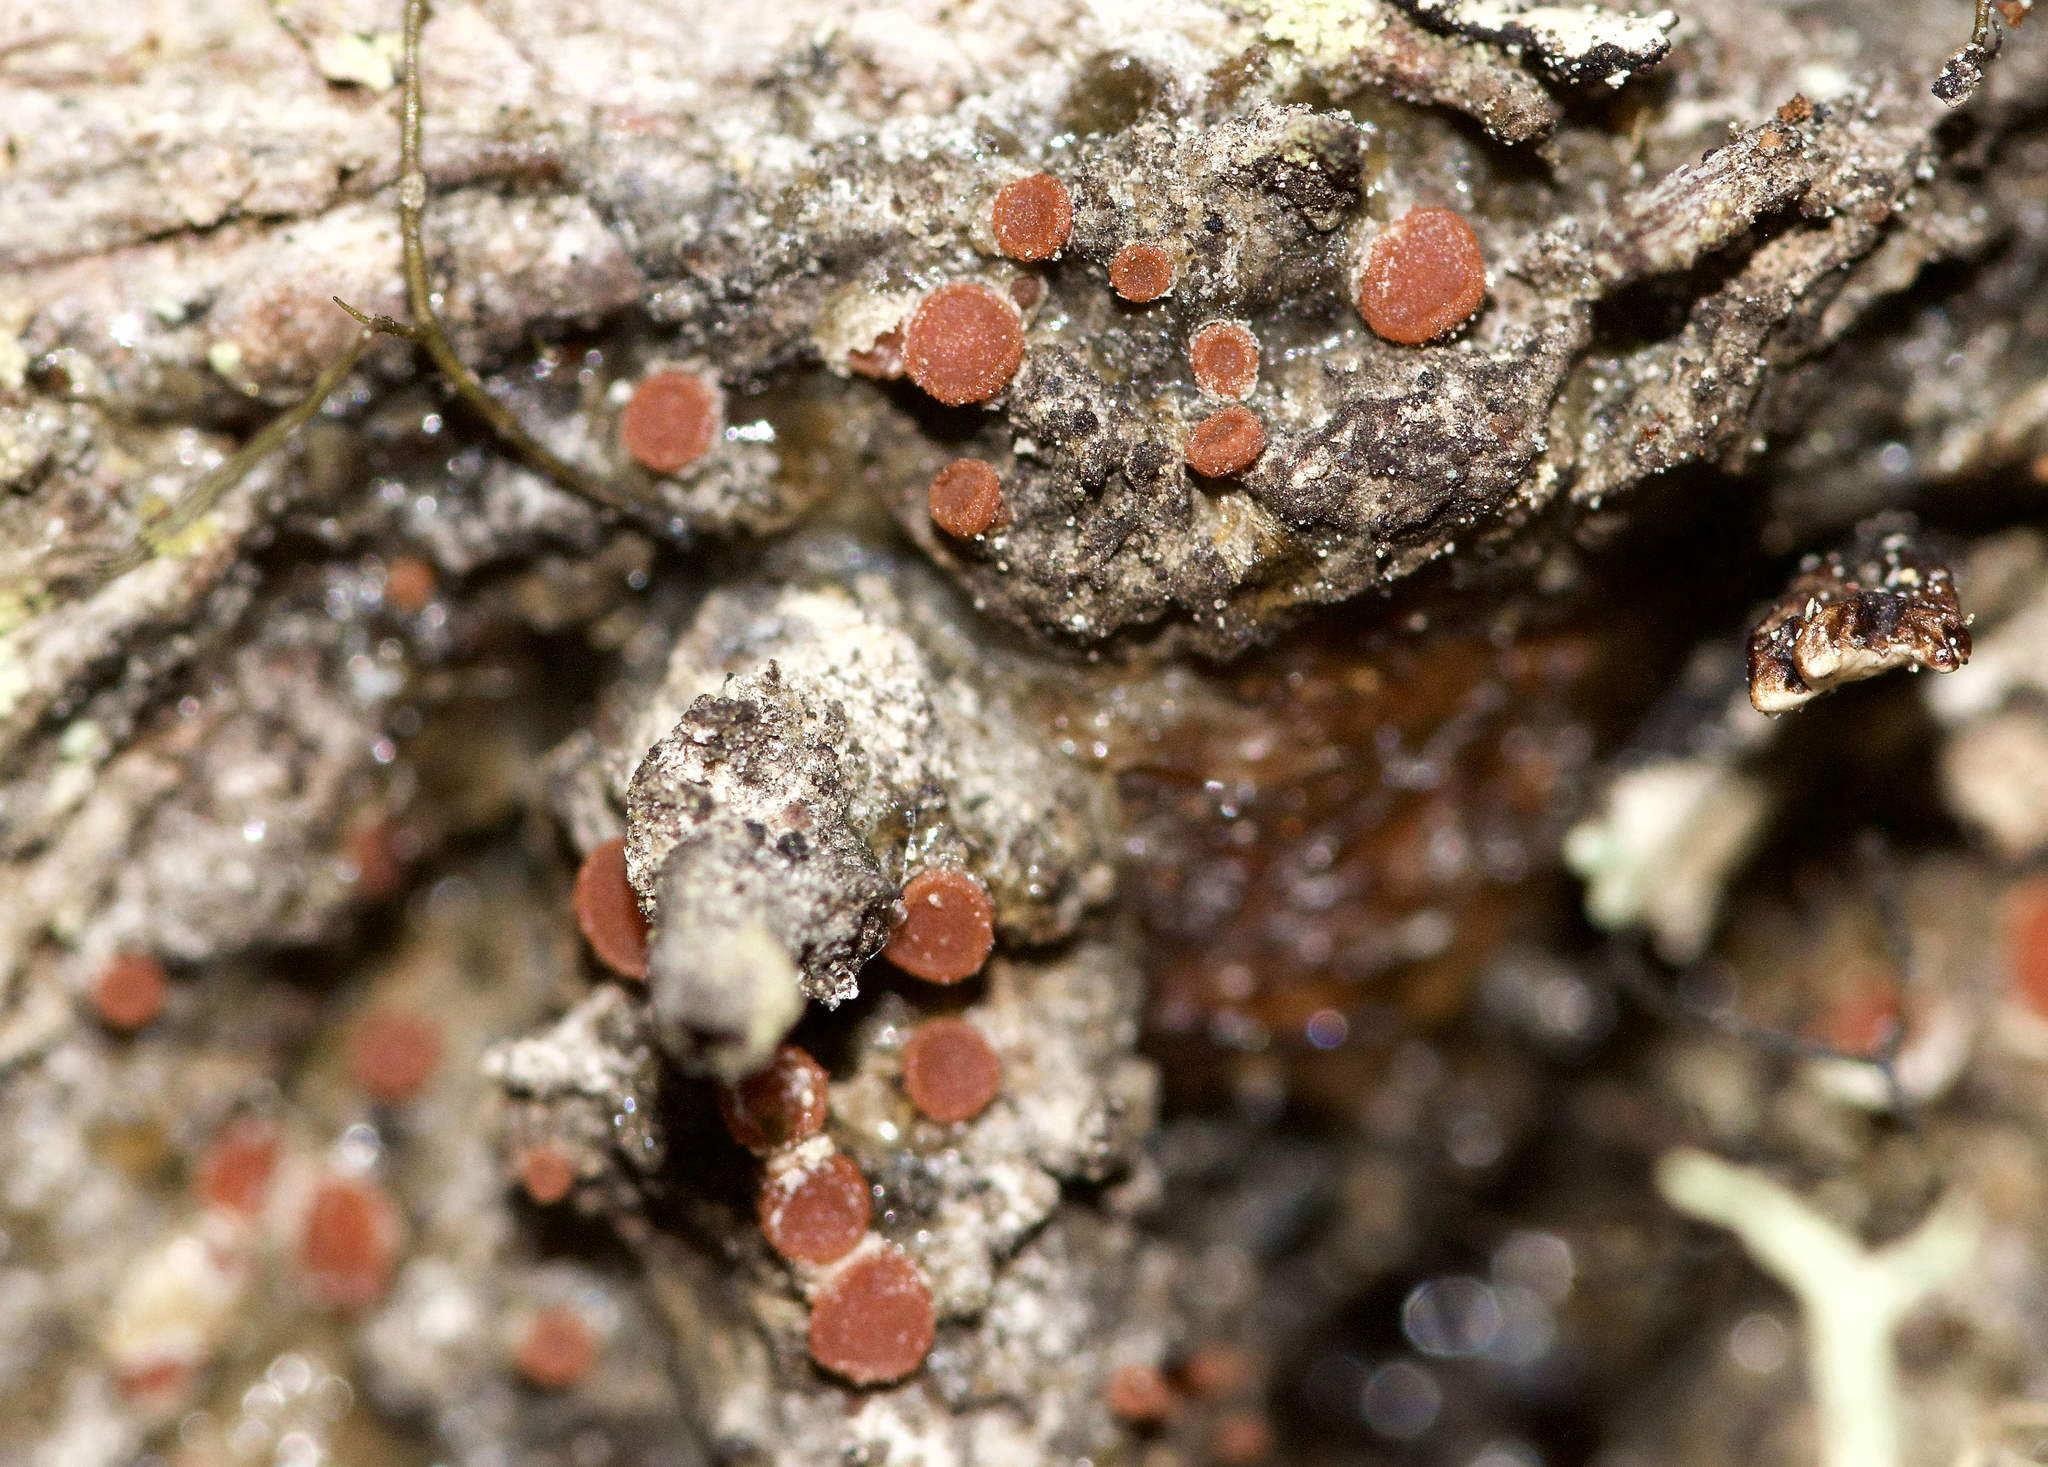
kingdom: Fungi
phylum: Ascomycota
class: Sareomycetes
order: Sareales
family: Sareaceae
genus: Sarea
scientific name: Sarea resinae
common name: Sarea lichen
